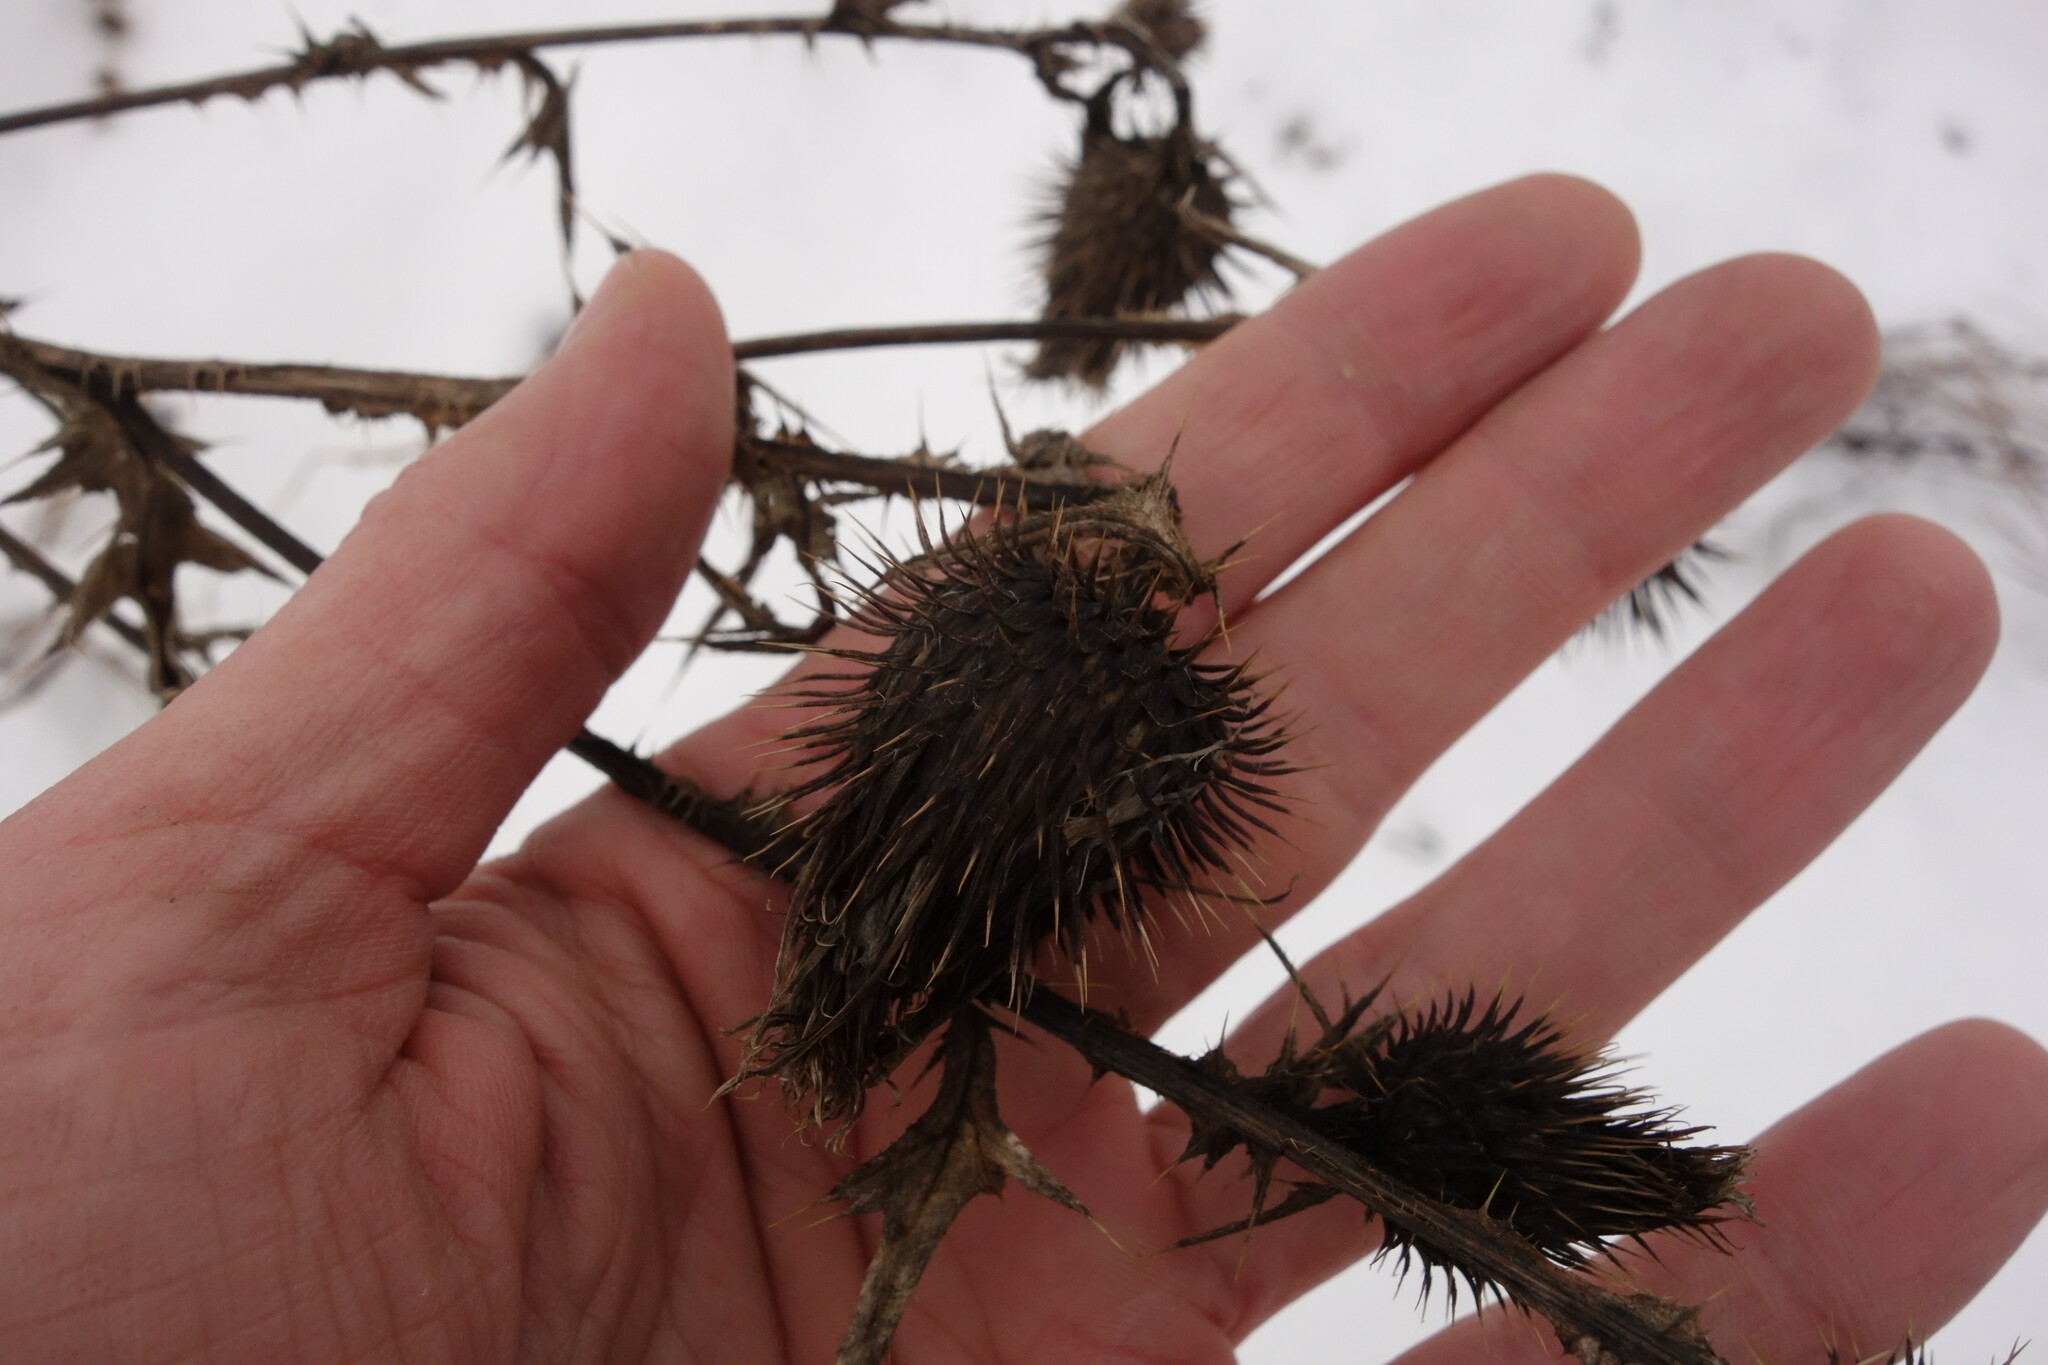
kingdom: Plantae
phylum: Tracheophyta
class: Magnoliopsida
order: Asterales
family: Asteraceae
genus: Cirsium
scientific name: Cirsium vulgare
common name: Bull thistle
